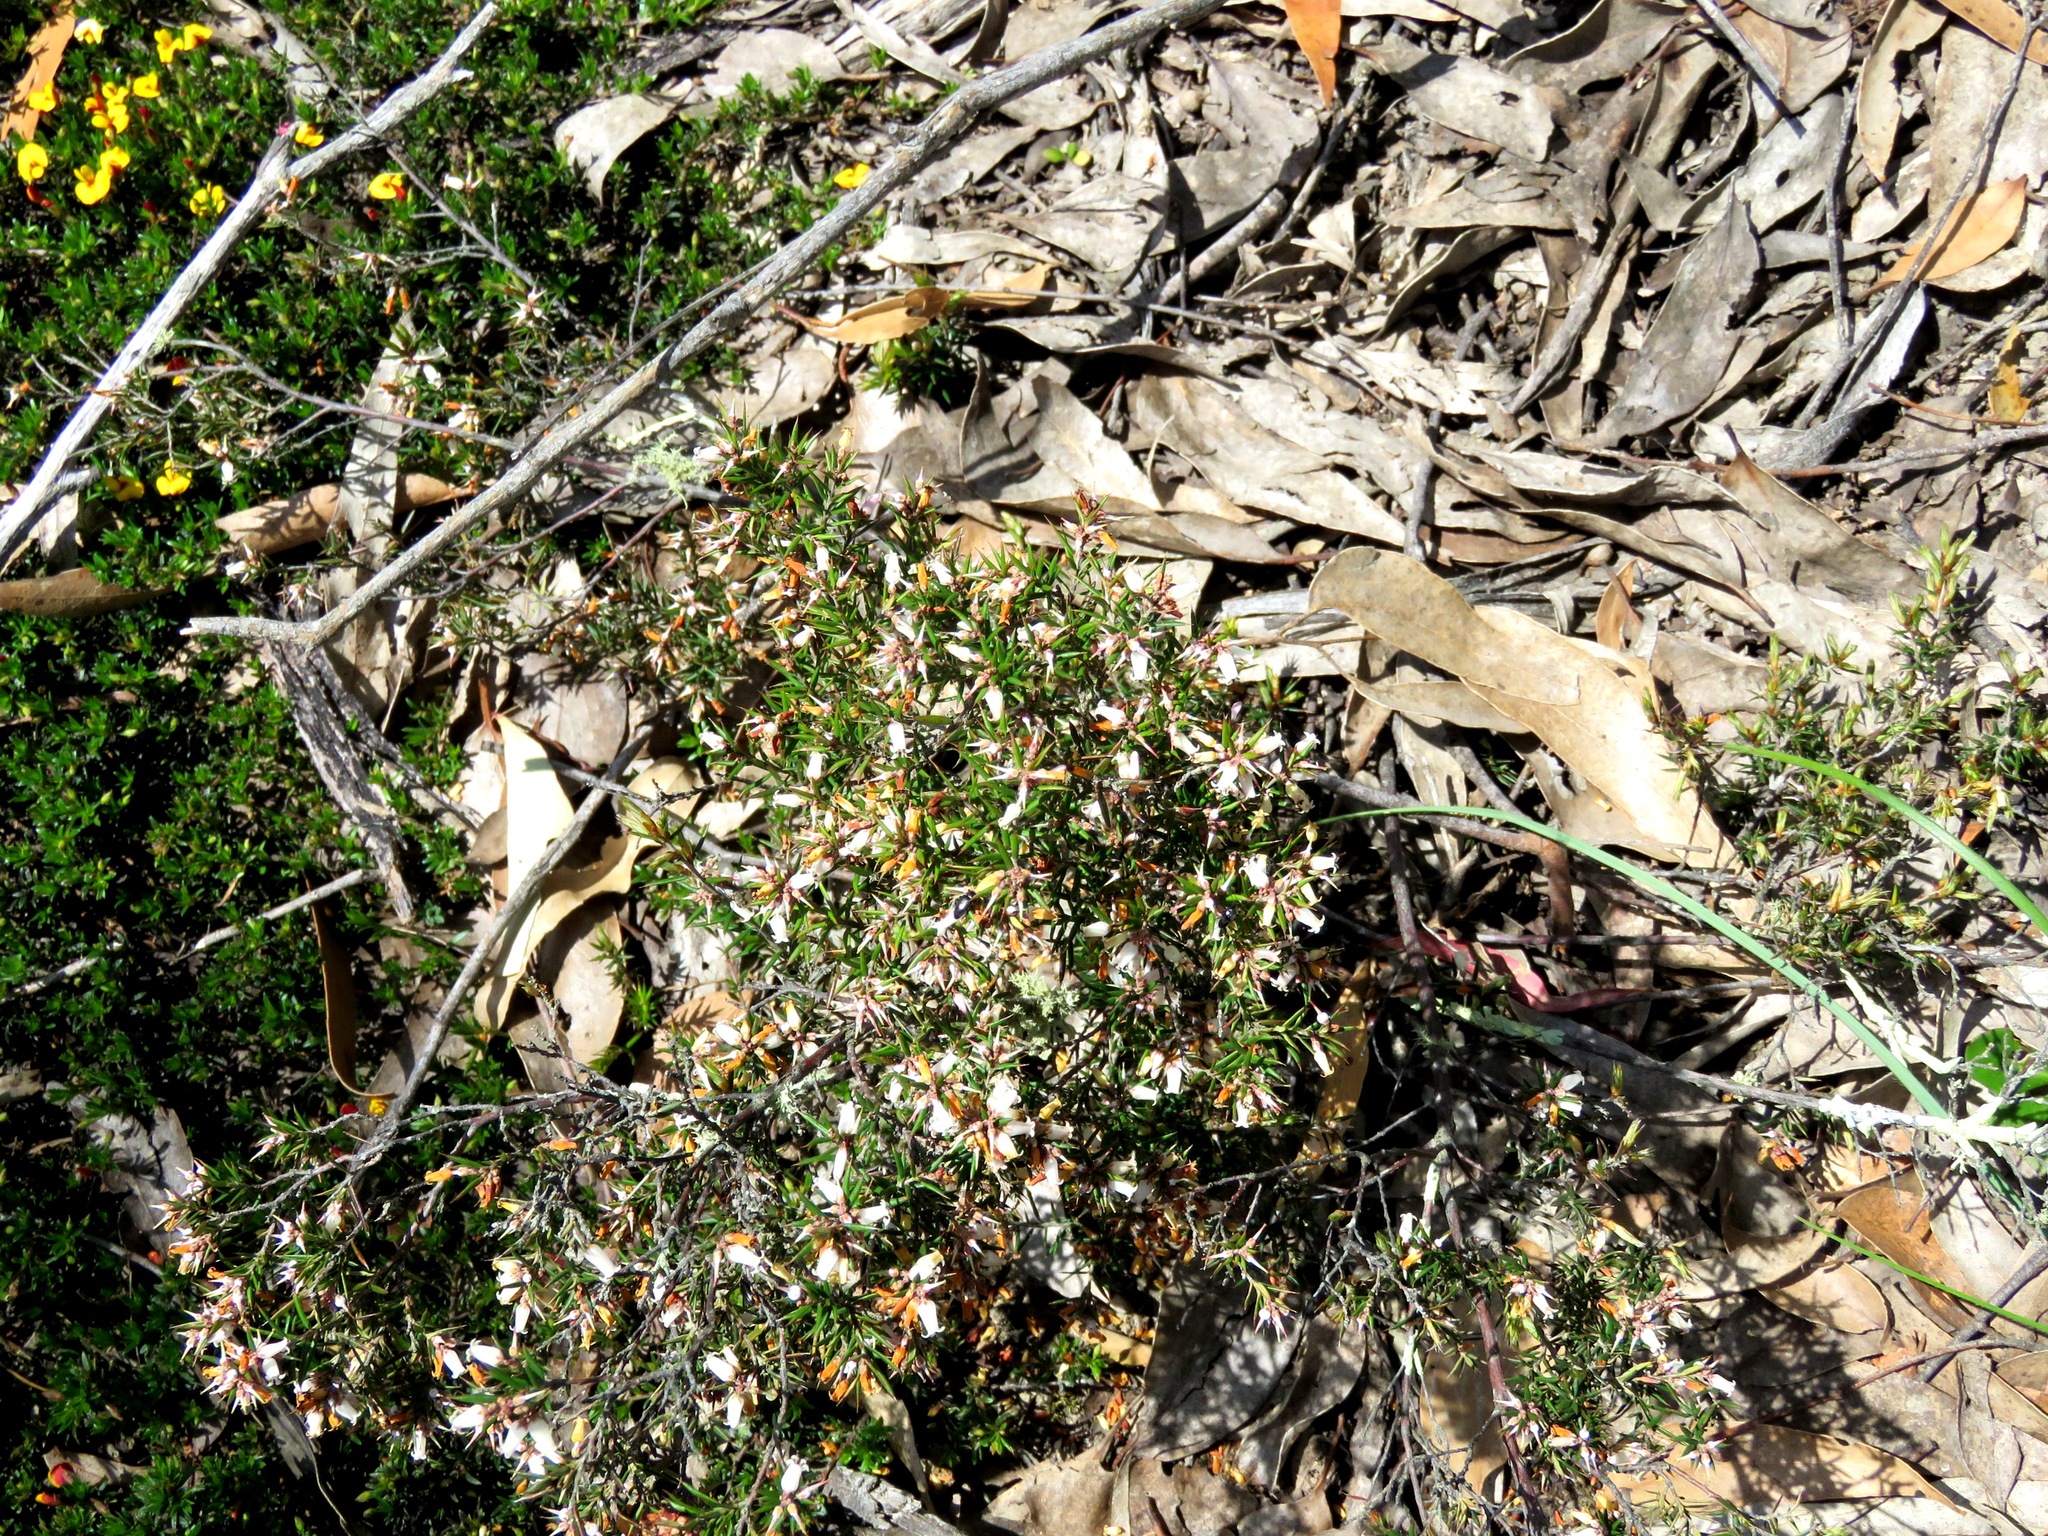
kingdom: Plantae
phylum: Tracheophyta
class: Magnoliopsida
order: Ericales
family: Ericaceae
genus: Lissanthe
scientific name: Lissanthe strigosa
